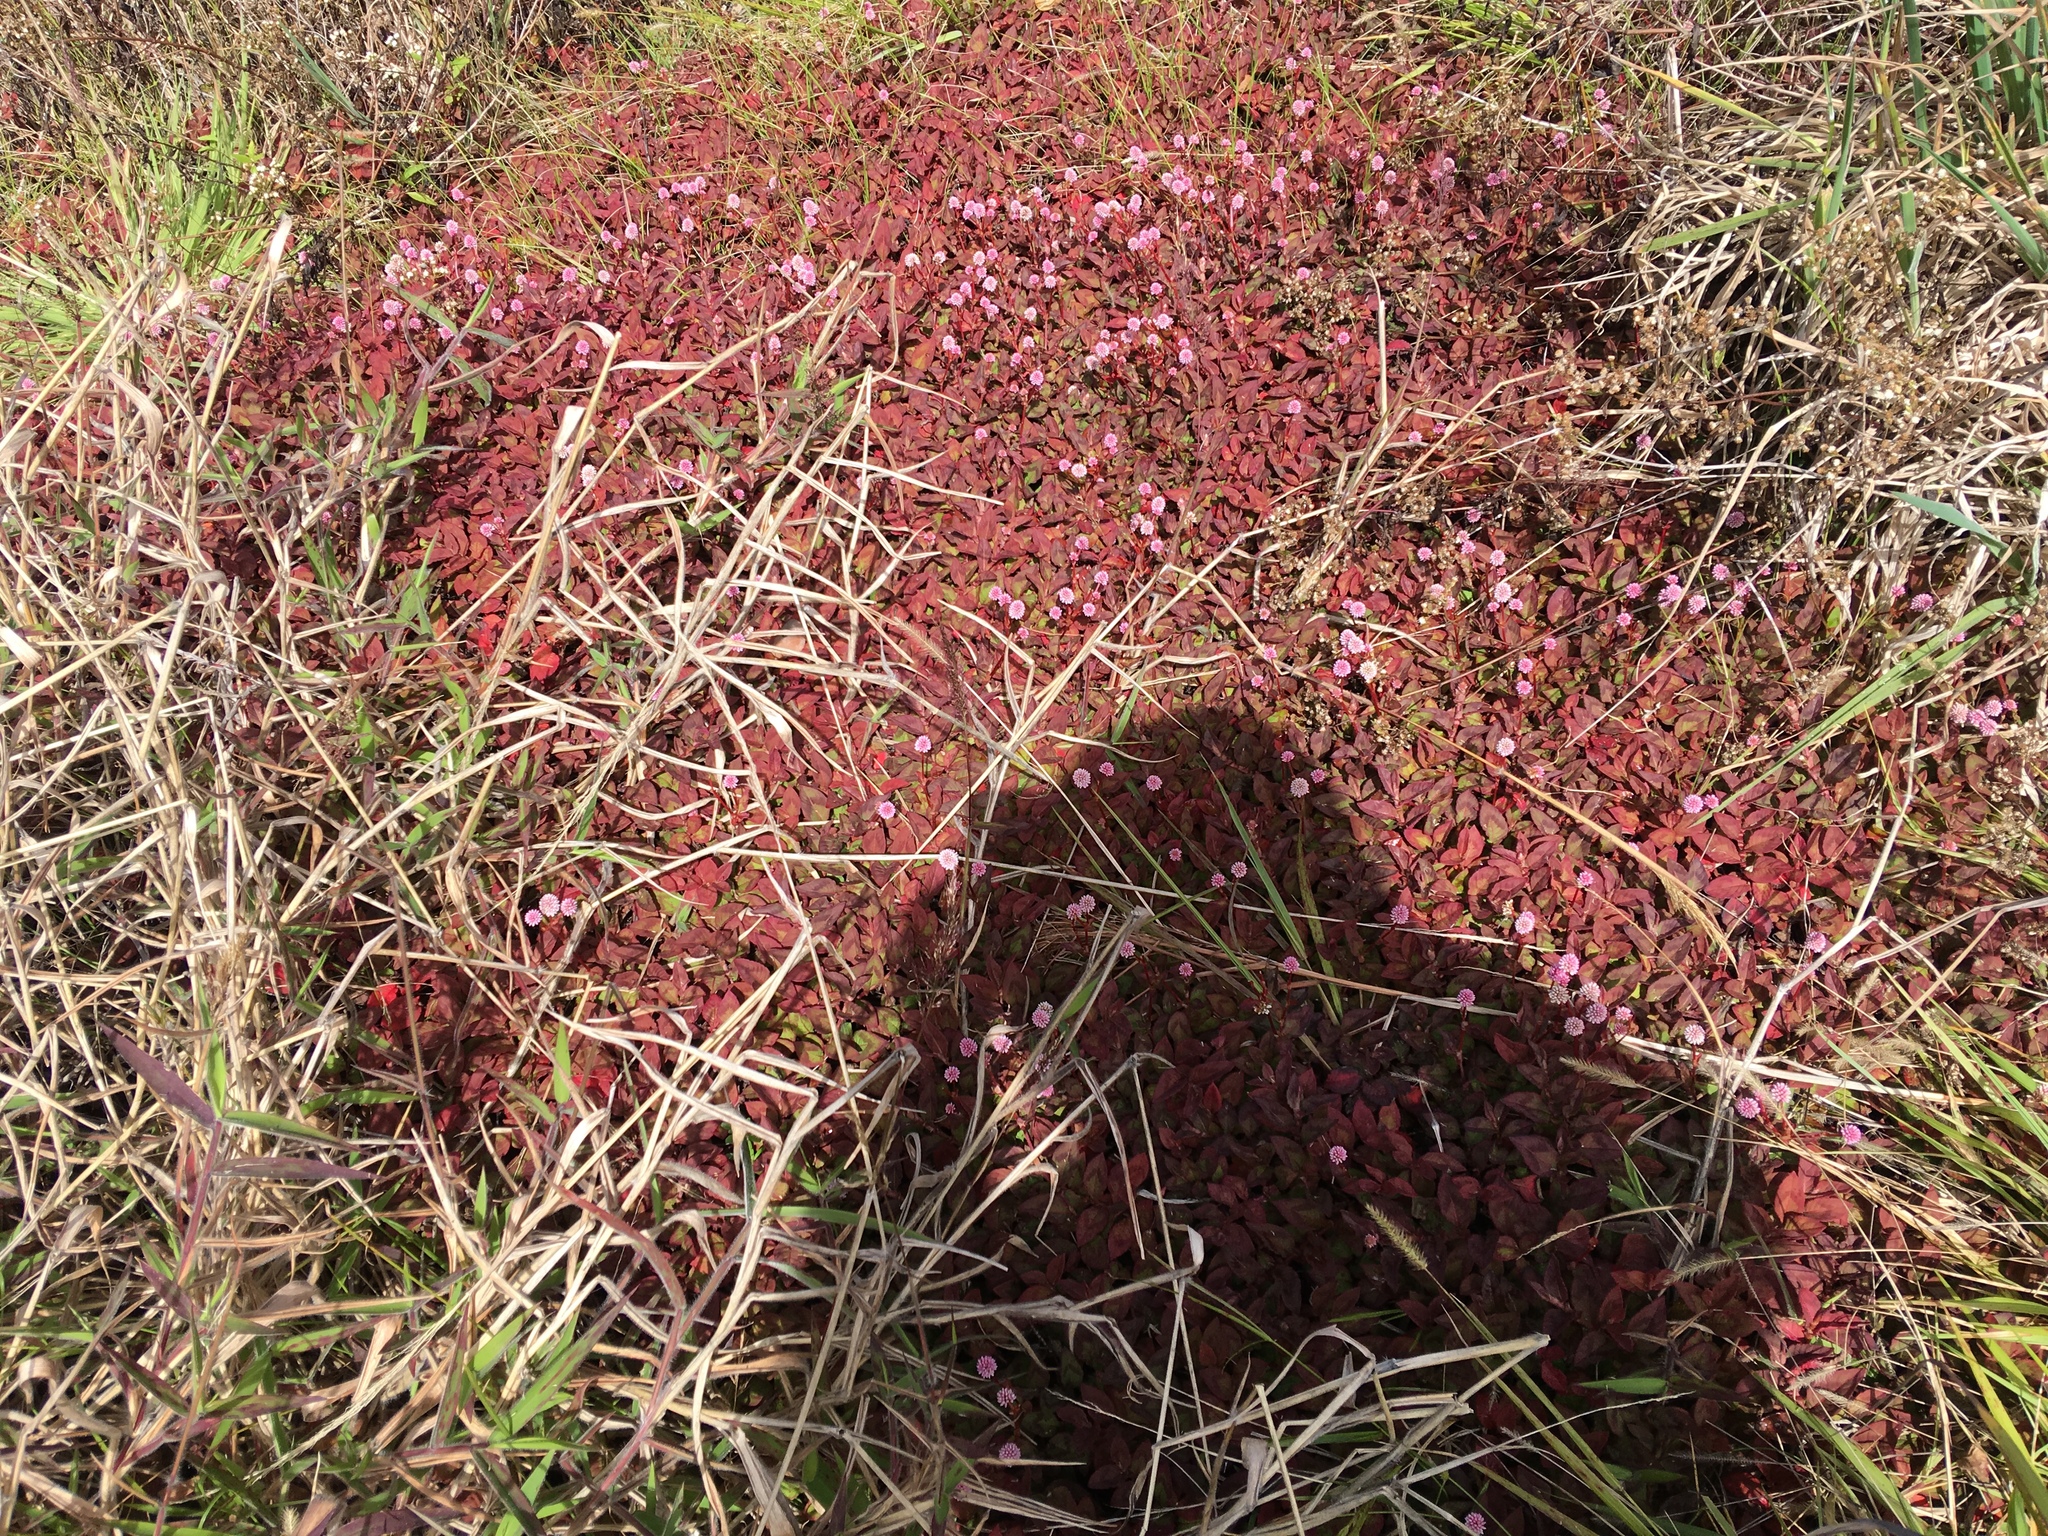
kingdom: Plantae
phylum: Tracheophyta
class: Magnoliopsida
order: Caryophyllales
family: Polygonaceae
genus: Persicaria
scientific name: Persicaria capitata
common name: Pinkhead smartweed
